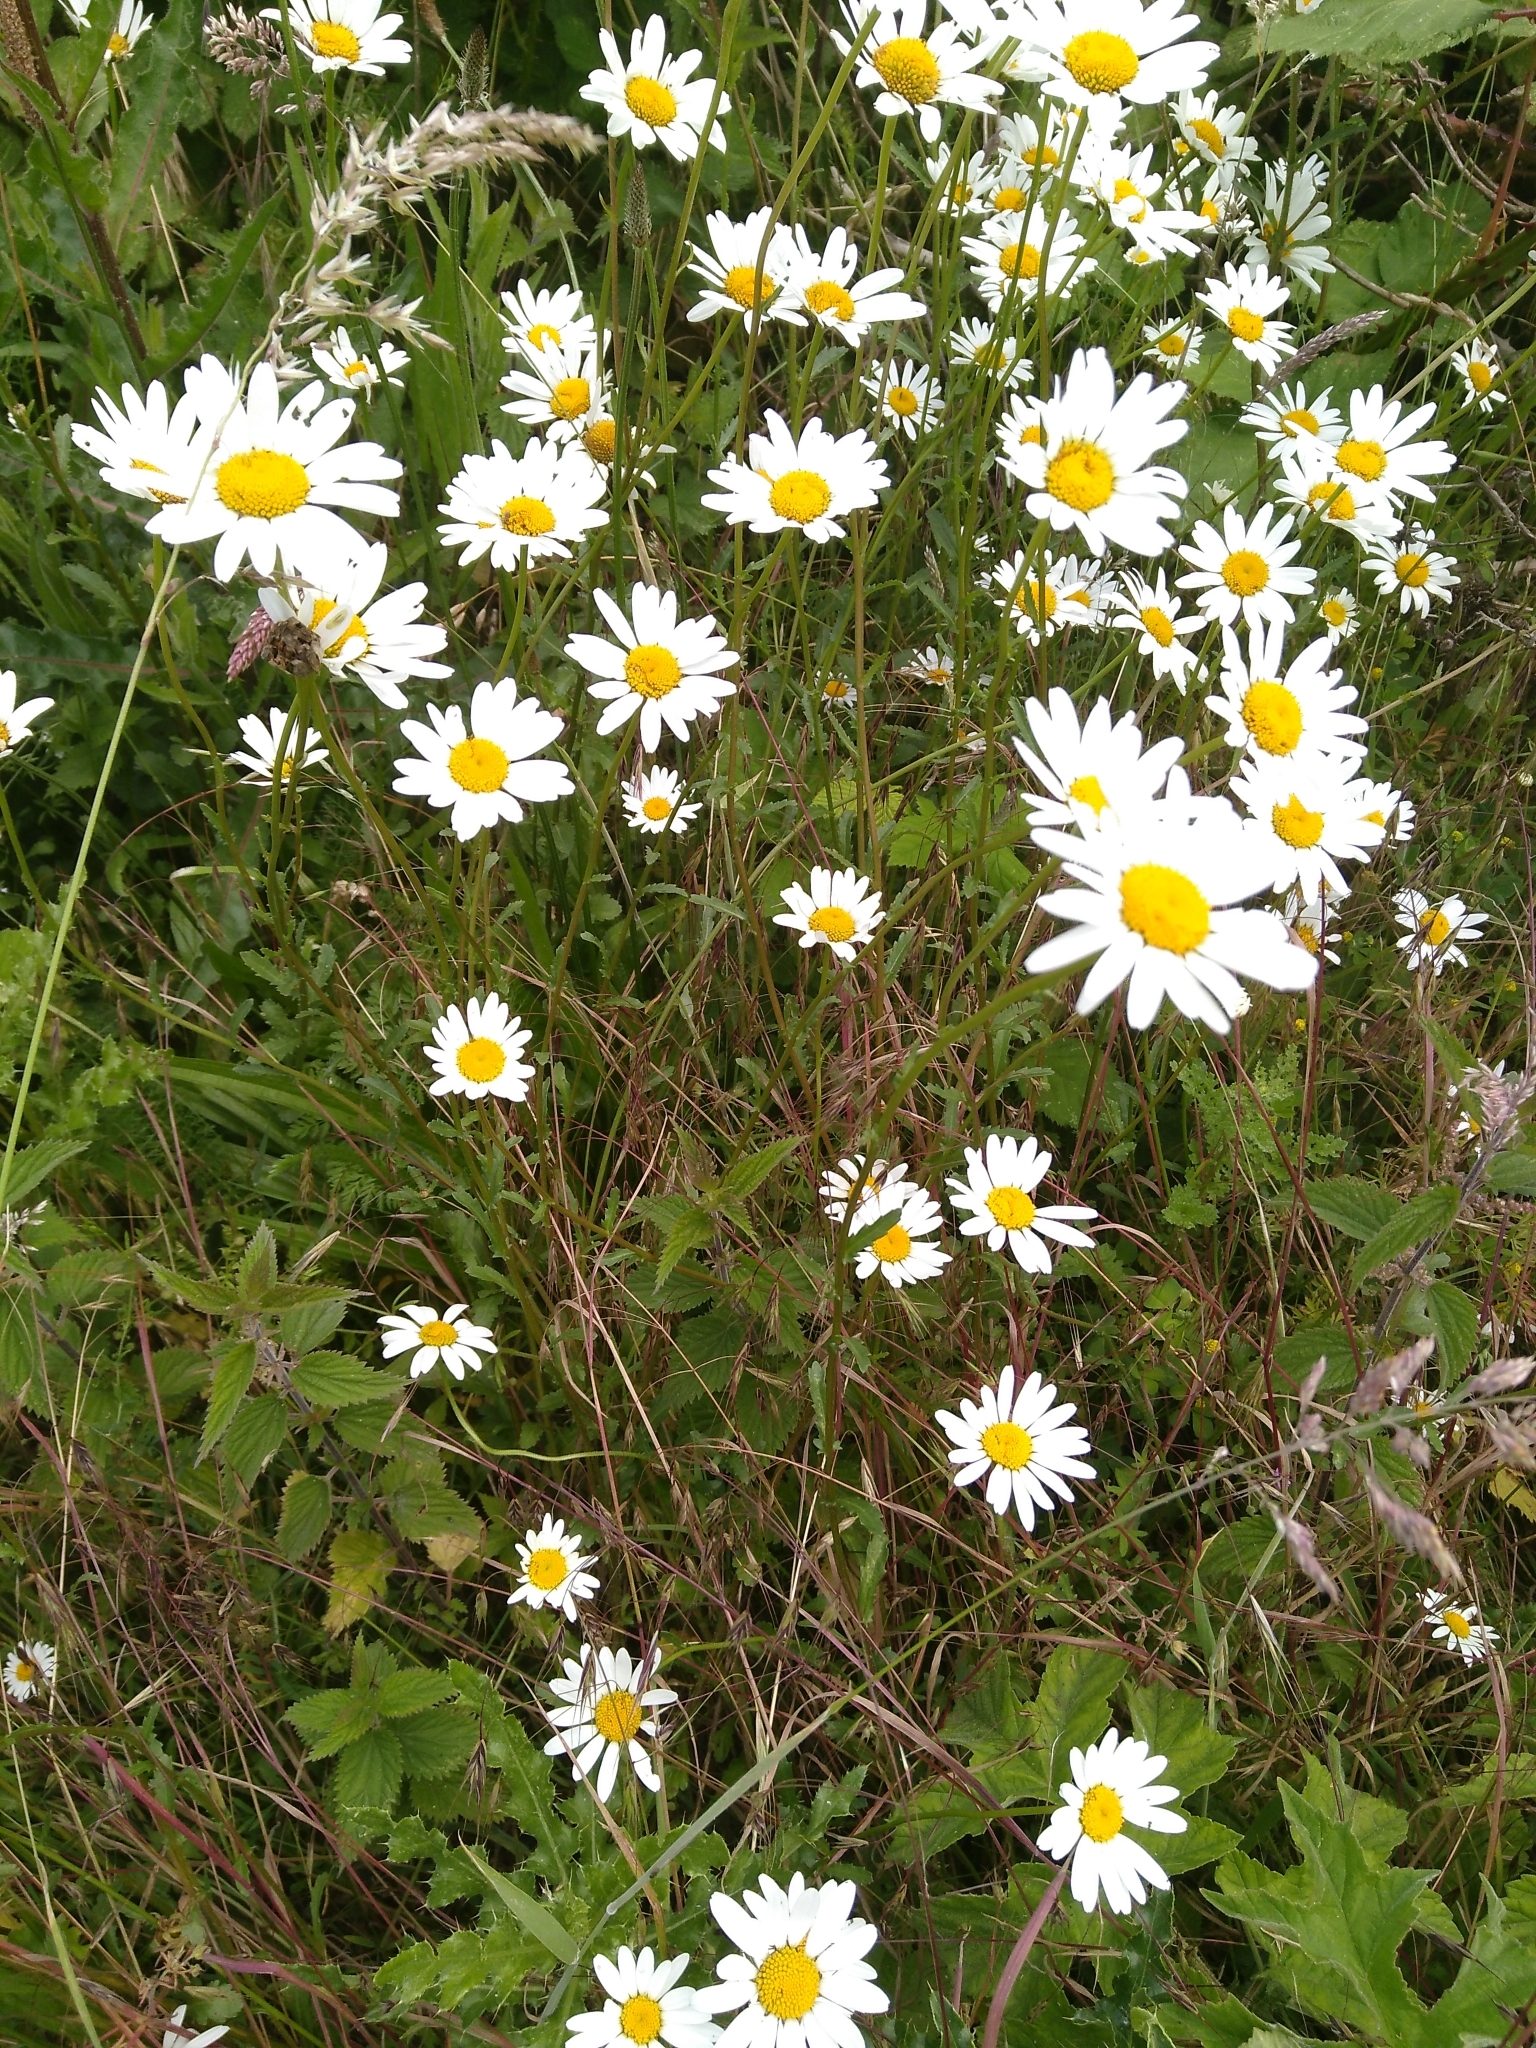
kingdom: Plantae
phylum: Tracheophyta
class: Magnoliopsida
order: Asterales
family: Asteraceae
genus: Leucanthemum
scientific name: Leucanthemum vulgare
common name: Oxeye daisy
